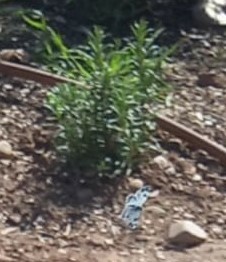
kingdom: Animalia
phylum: Arthropoda
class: Insecta
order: Lepidoptera
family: Pieridae
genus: Pontia
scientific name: Pontia daplidice
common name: Bath white
